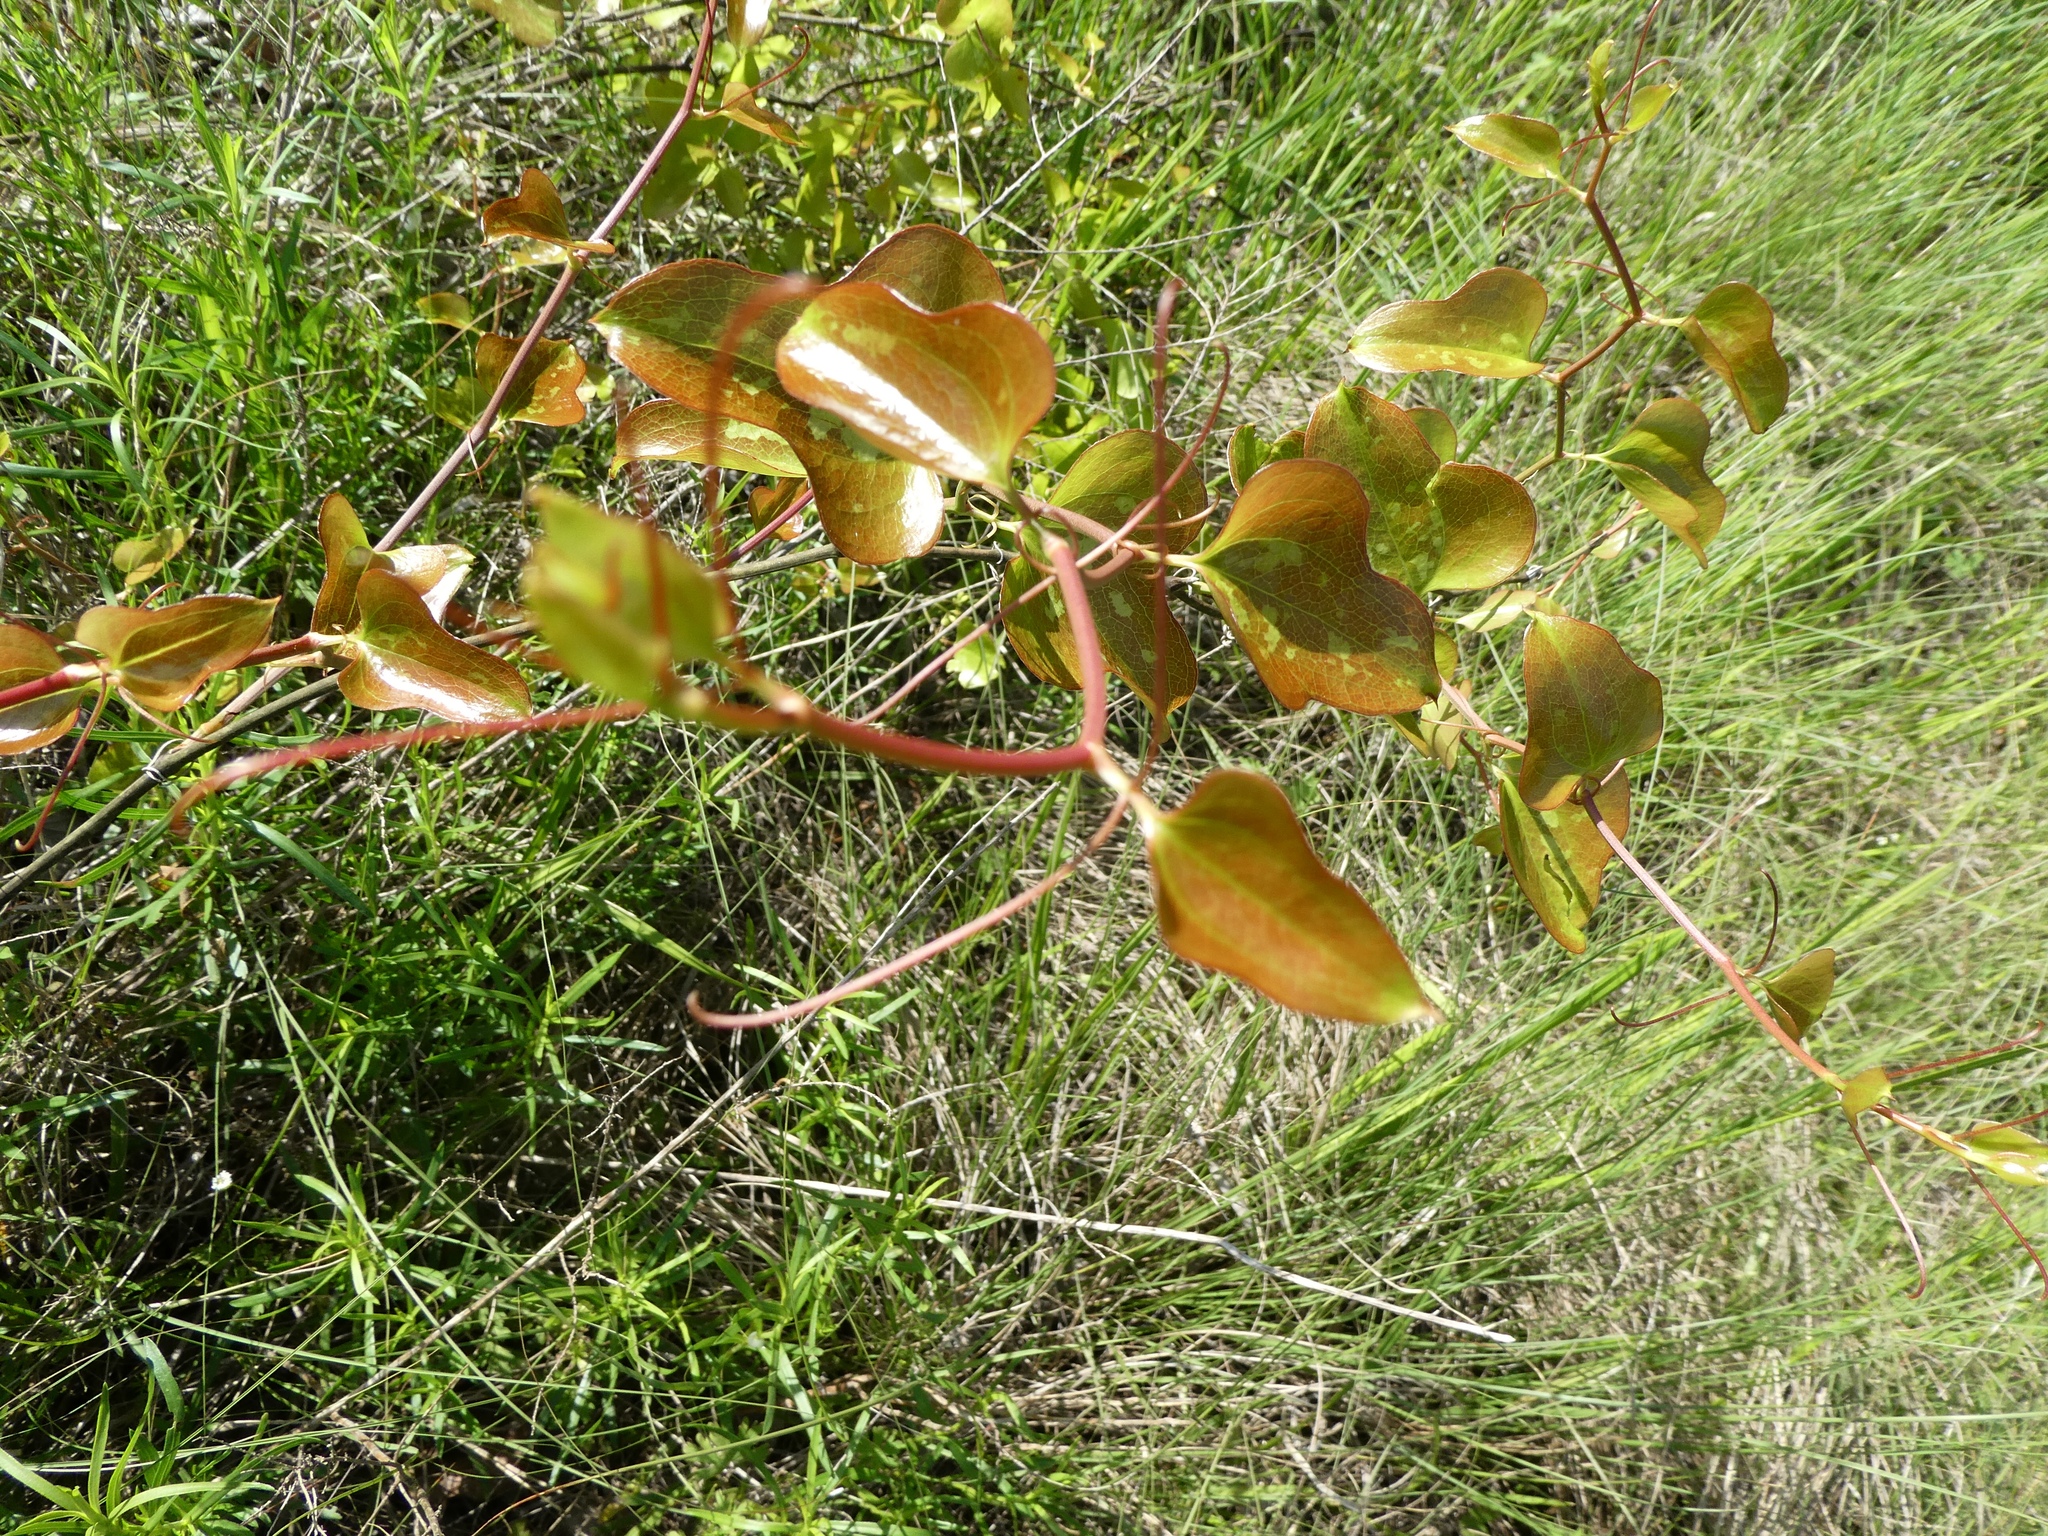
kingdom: Plantae
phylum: Tracheophyta
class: Liliopsida
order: Liliales
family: Smilacaceae
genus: Smilax
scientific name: Smilax bona-nox
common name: Catbrier
